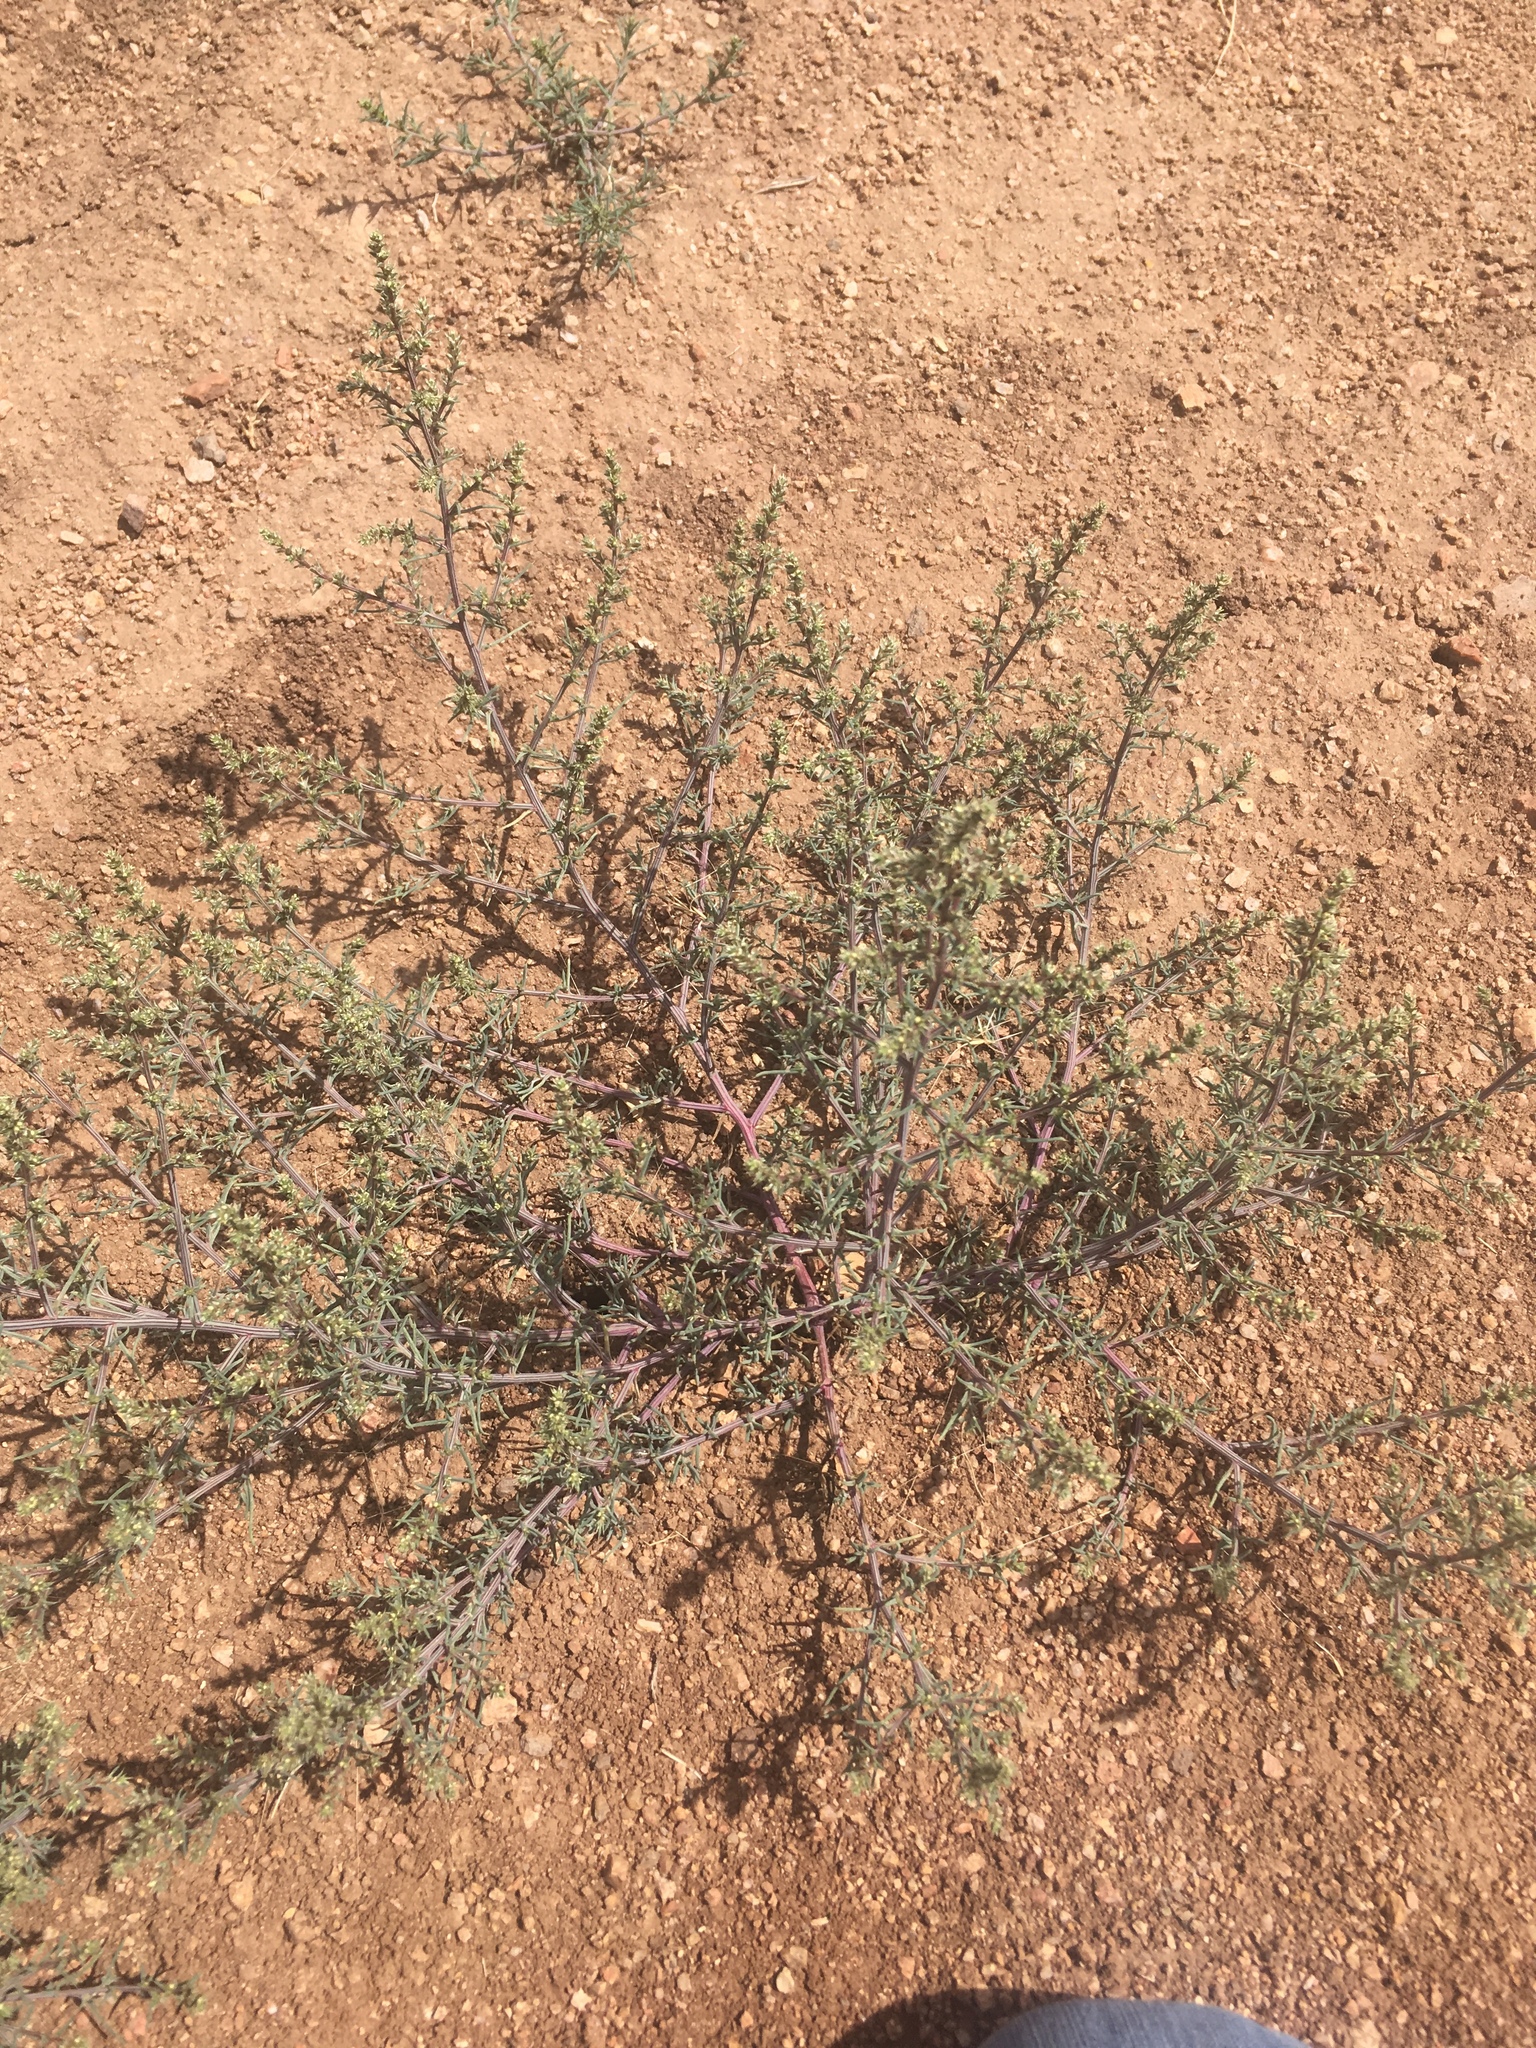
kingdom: Plantae
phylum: Tracheophyta
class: Magnoliopsida
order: Caryophyllales
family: Amaranthaceae
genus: Salsola
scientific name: Salsola tragus
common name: Prickly russian thistle
